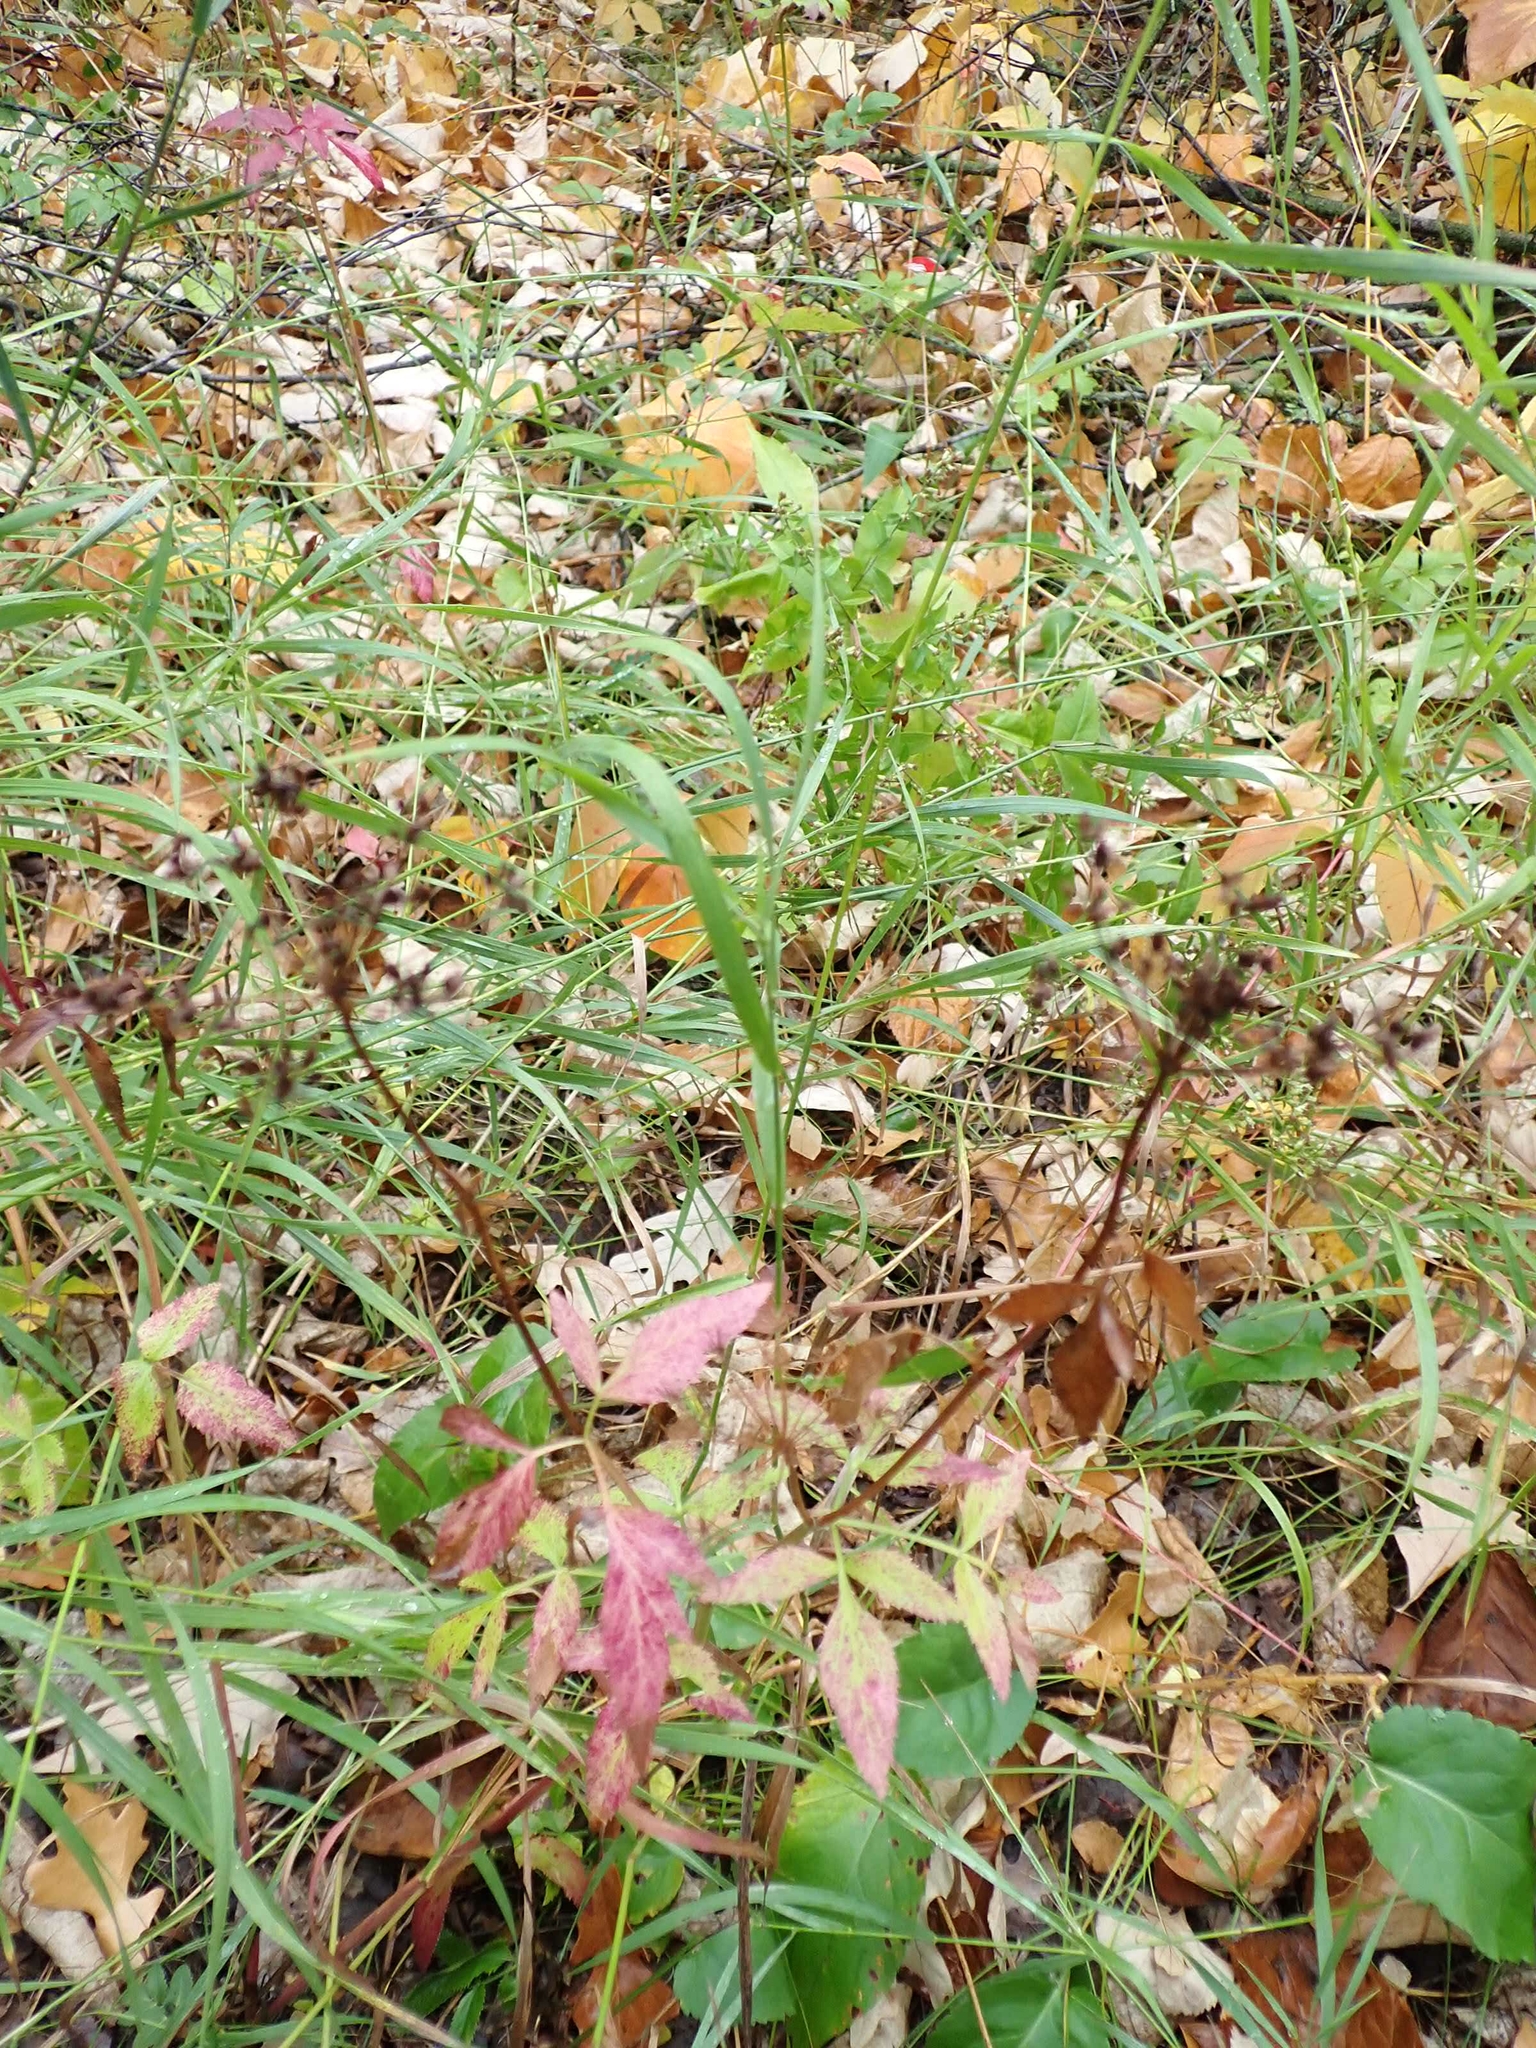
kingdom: Plantae
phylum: Tracheophyta
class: Magnoliopsida
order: Apiales
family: Apiaceae
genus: Zizia
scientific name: Zizia aurea
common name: Golden alexanders
